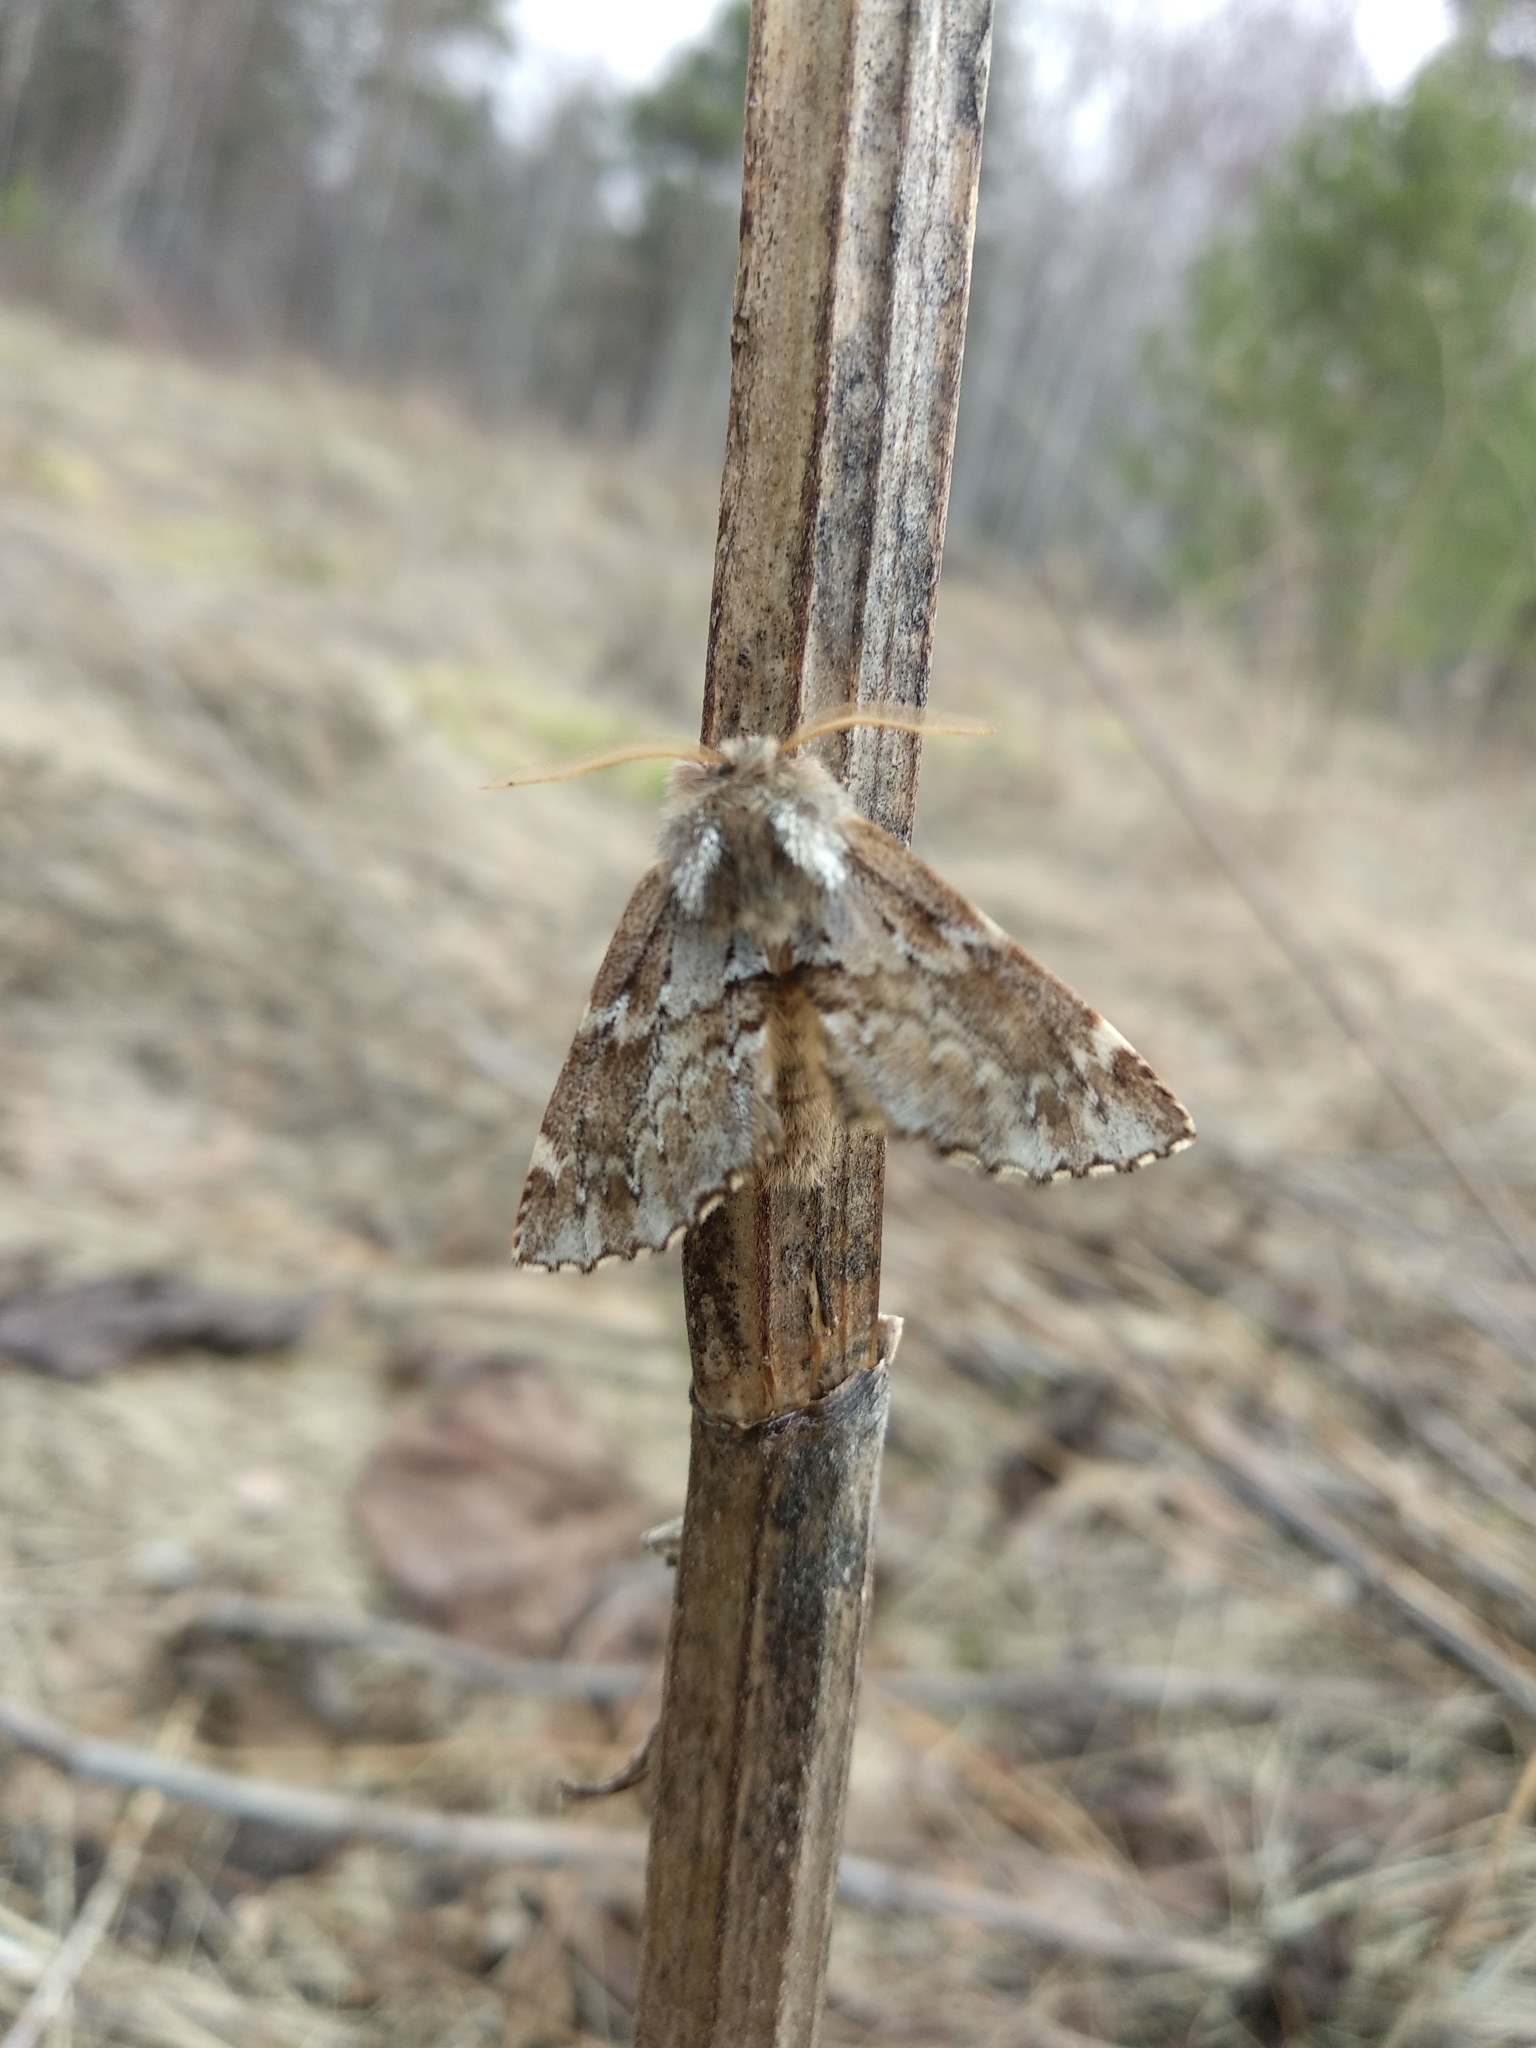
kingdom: Animalia
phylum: Arthropoda
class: Insecta
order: Lepidoptera
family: Notodontidae
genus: Odontosia
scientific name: Odontosia sieversii
